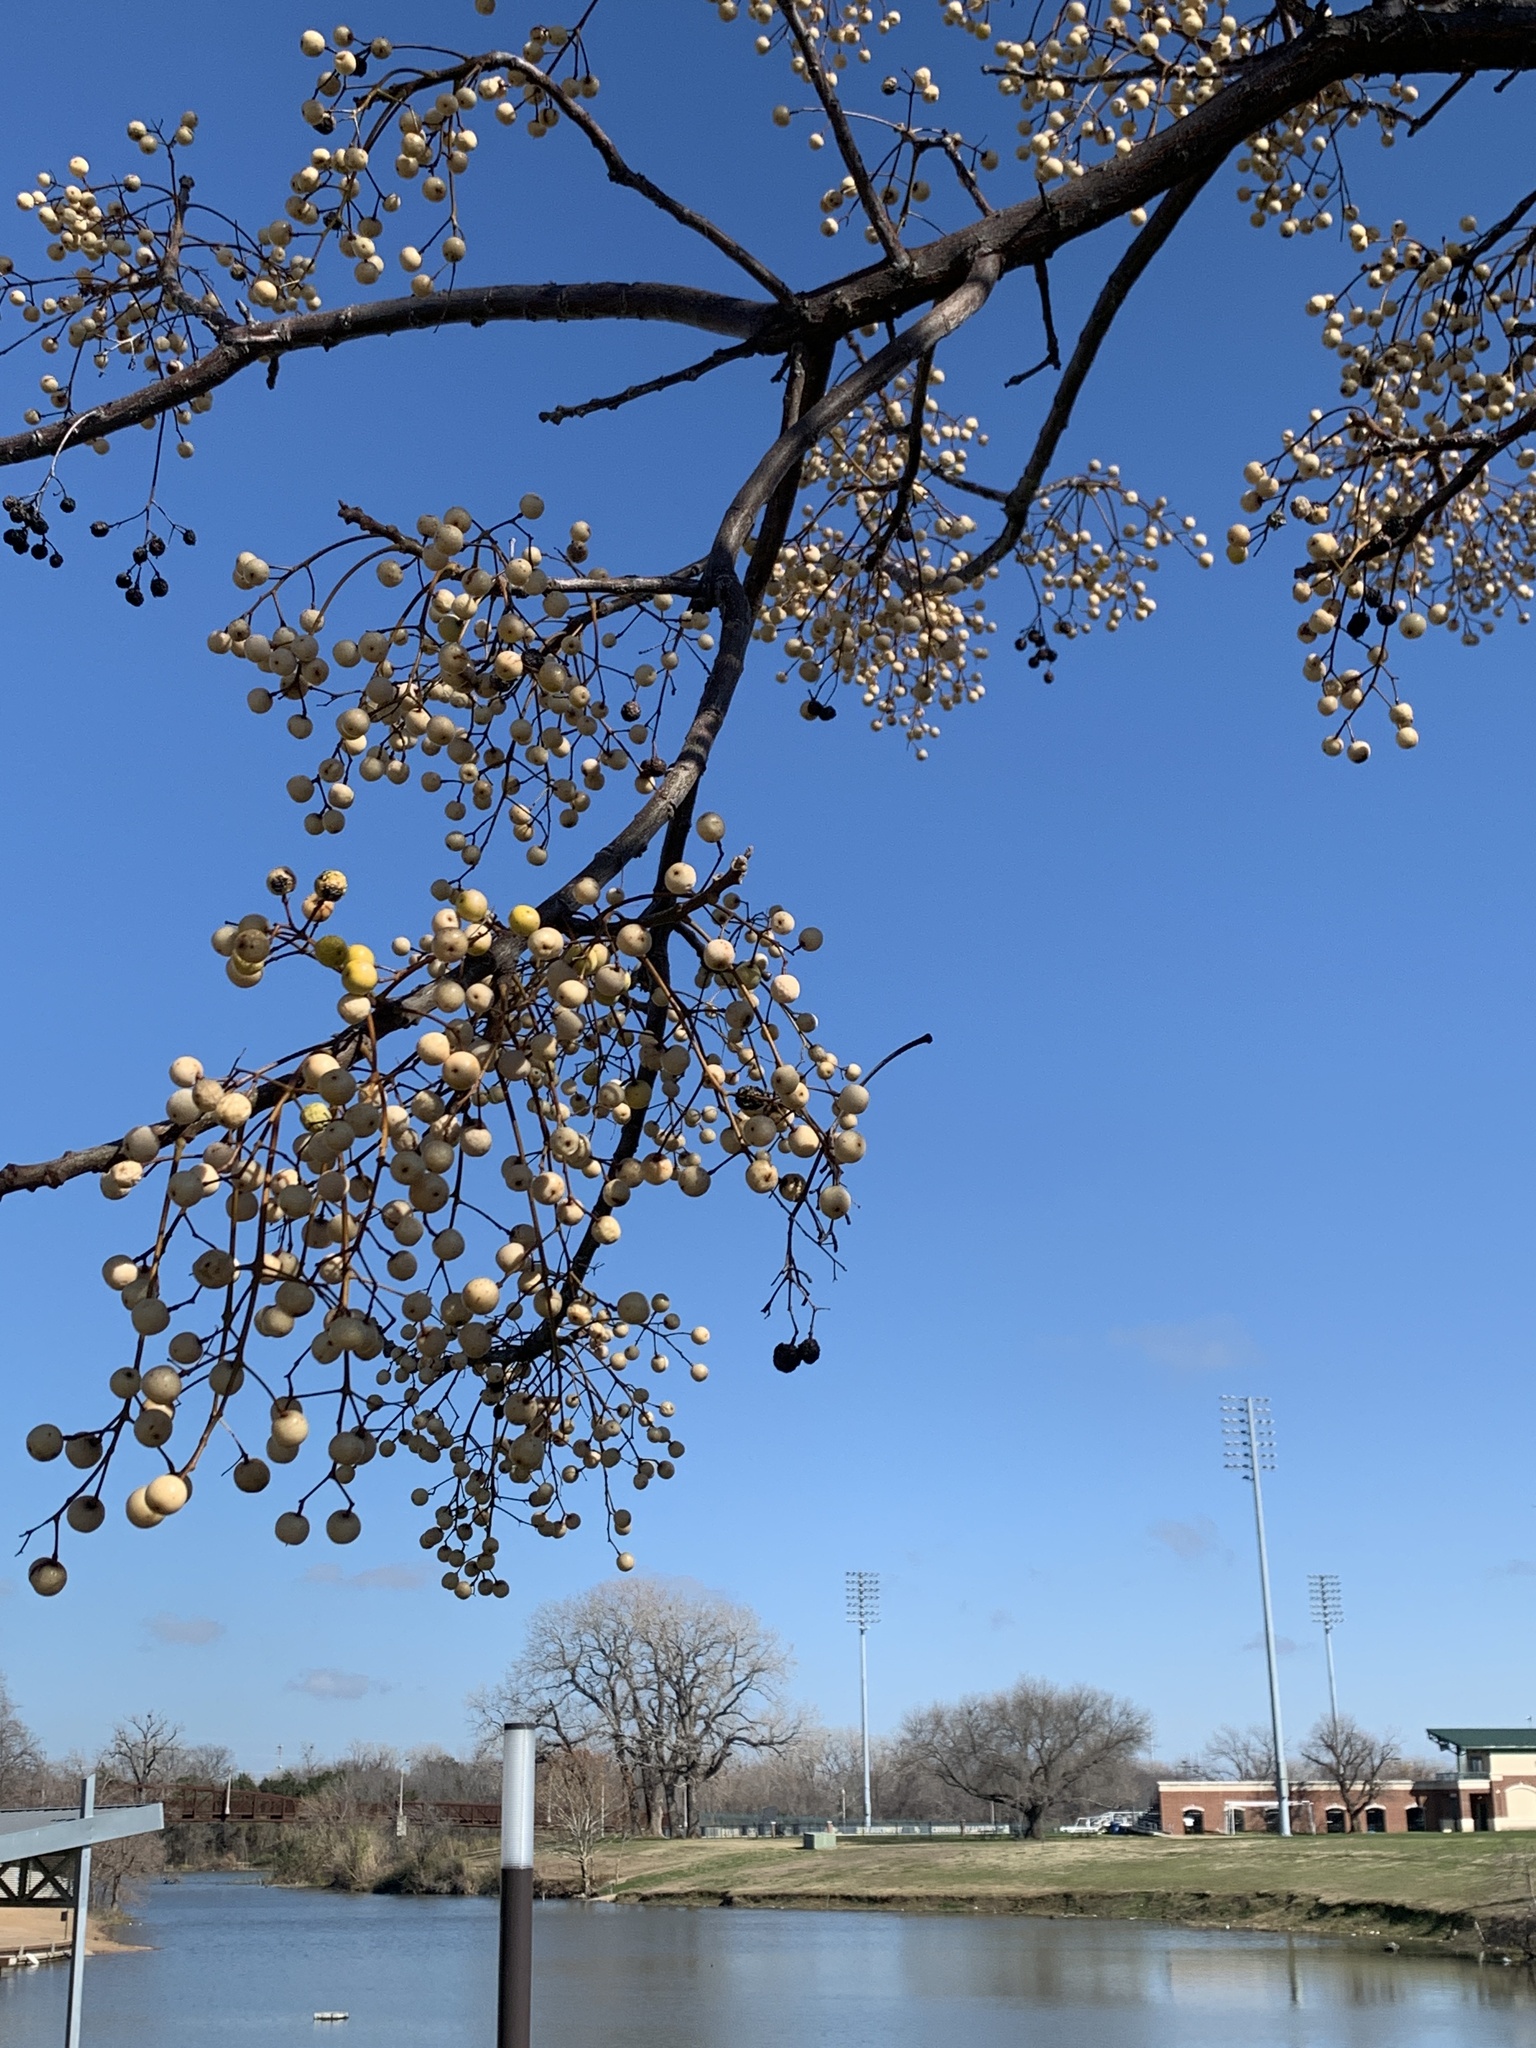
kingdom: Plantae
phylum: Tracheophyta
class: Magnoliopsida
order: Sapindales
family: Meliaceae
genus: Melia
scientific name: Melia azedarach
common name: Chinaberrytree
